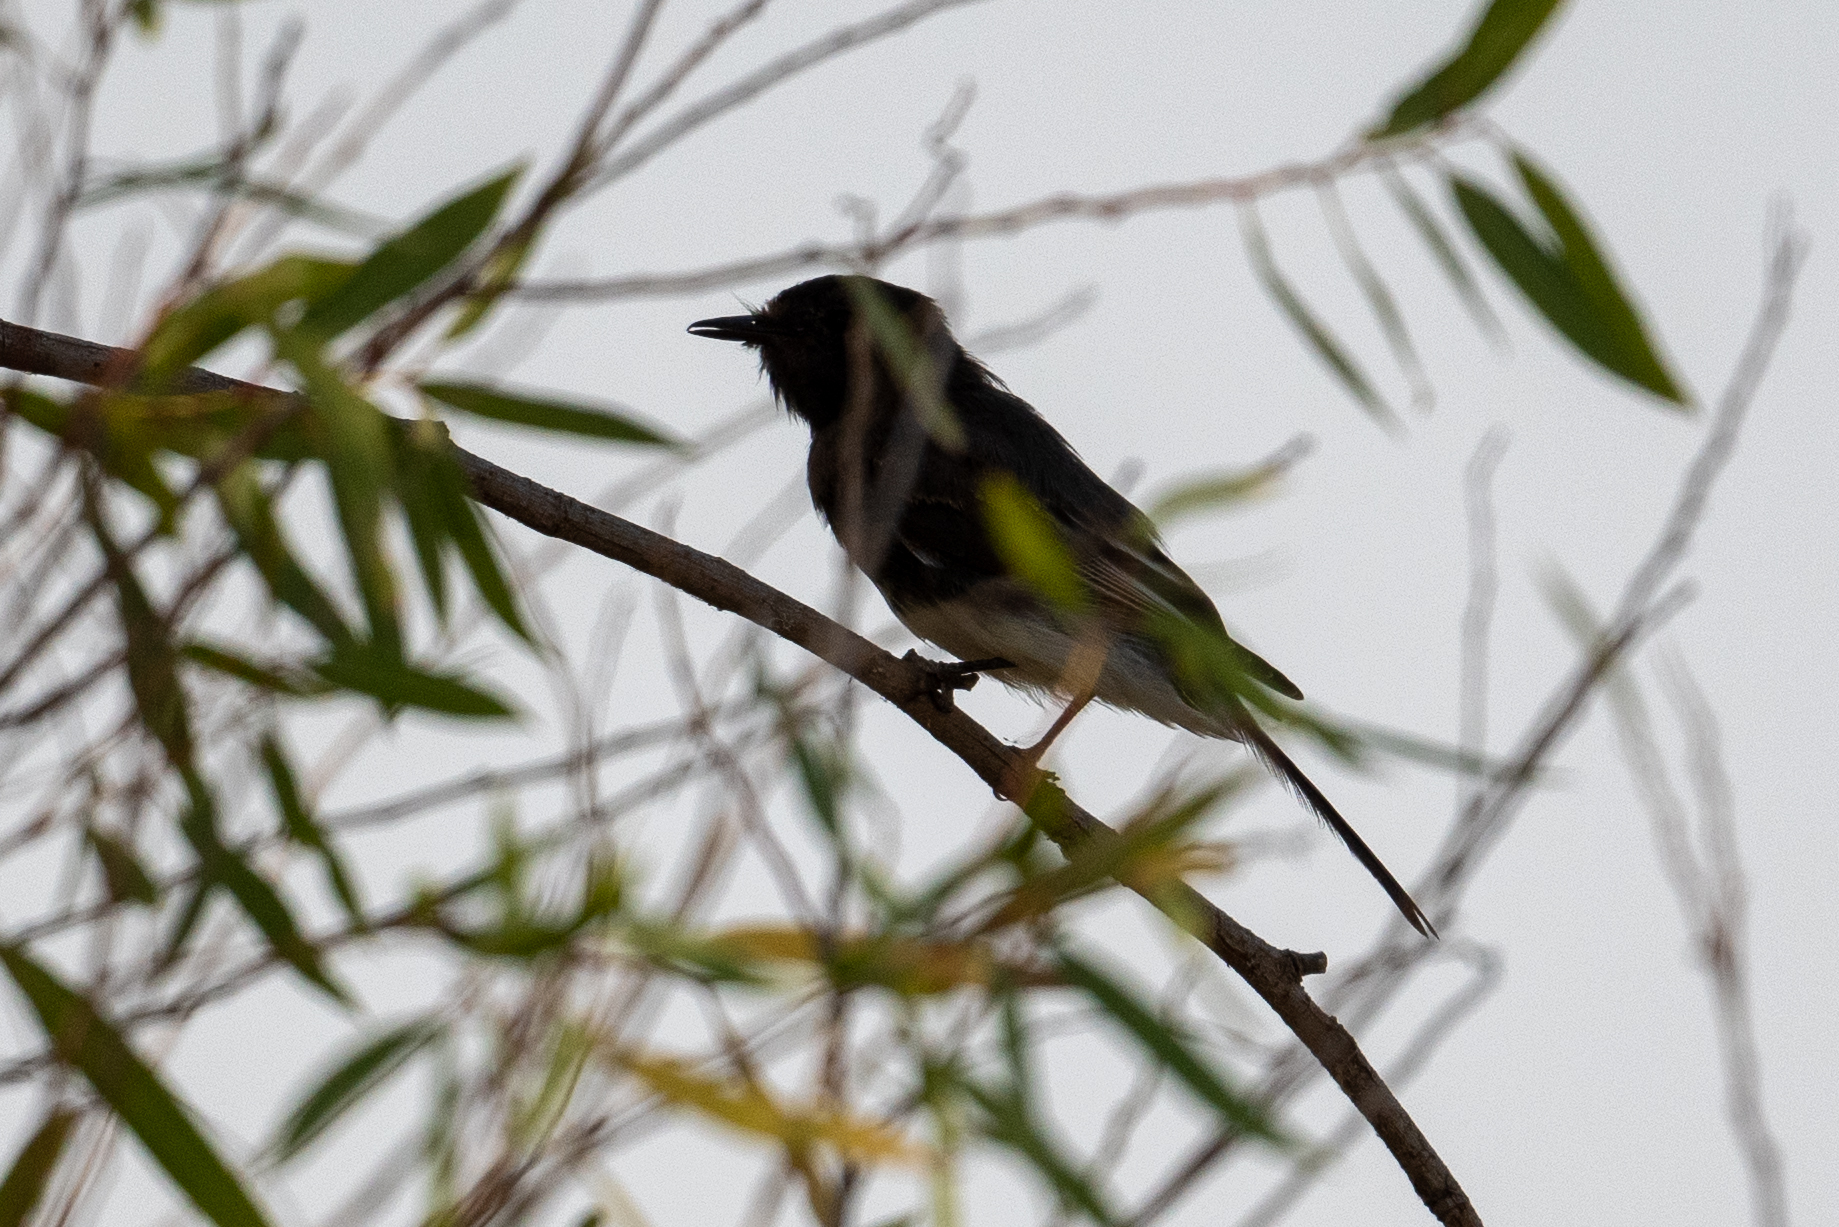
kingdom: Animalia
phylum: Chordata
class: Aves
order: Passeriformes
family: Tyrannidae
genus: Sayornis
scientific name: Sayornis nigricans
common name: Black phoebe
